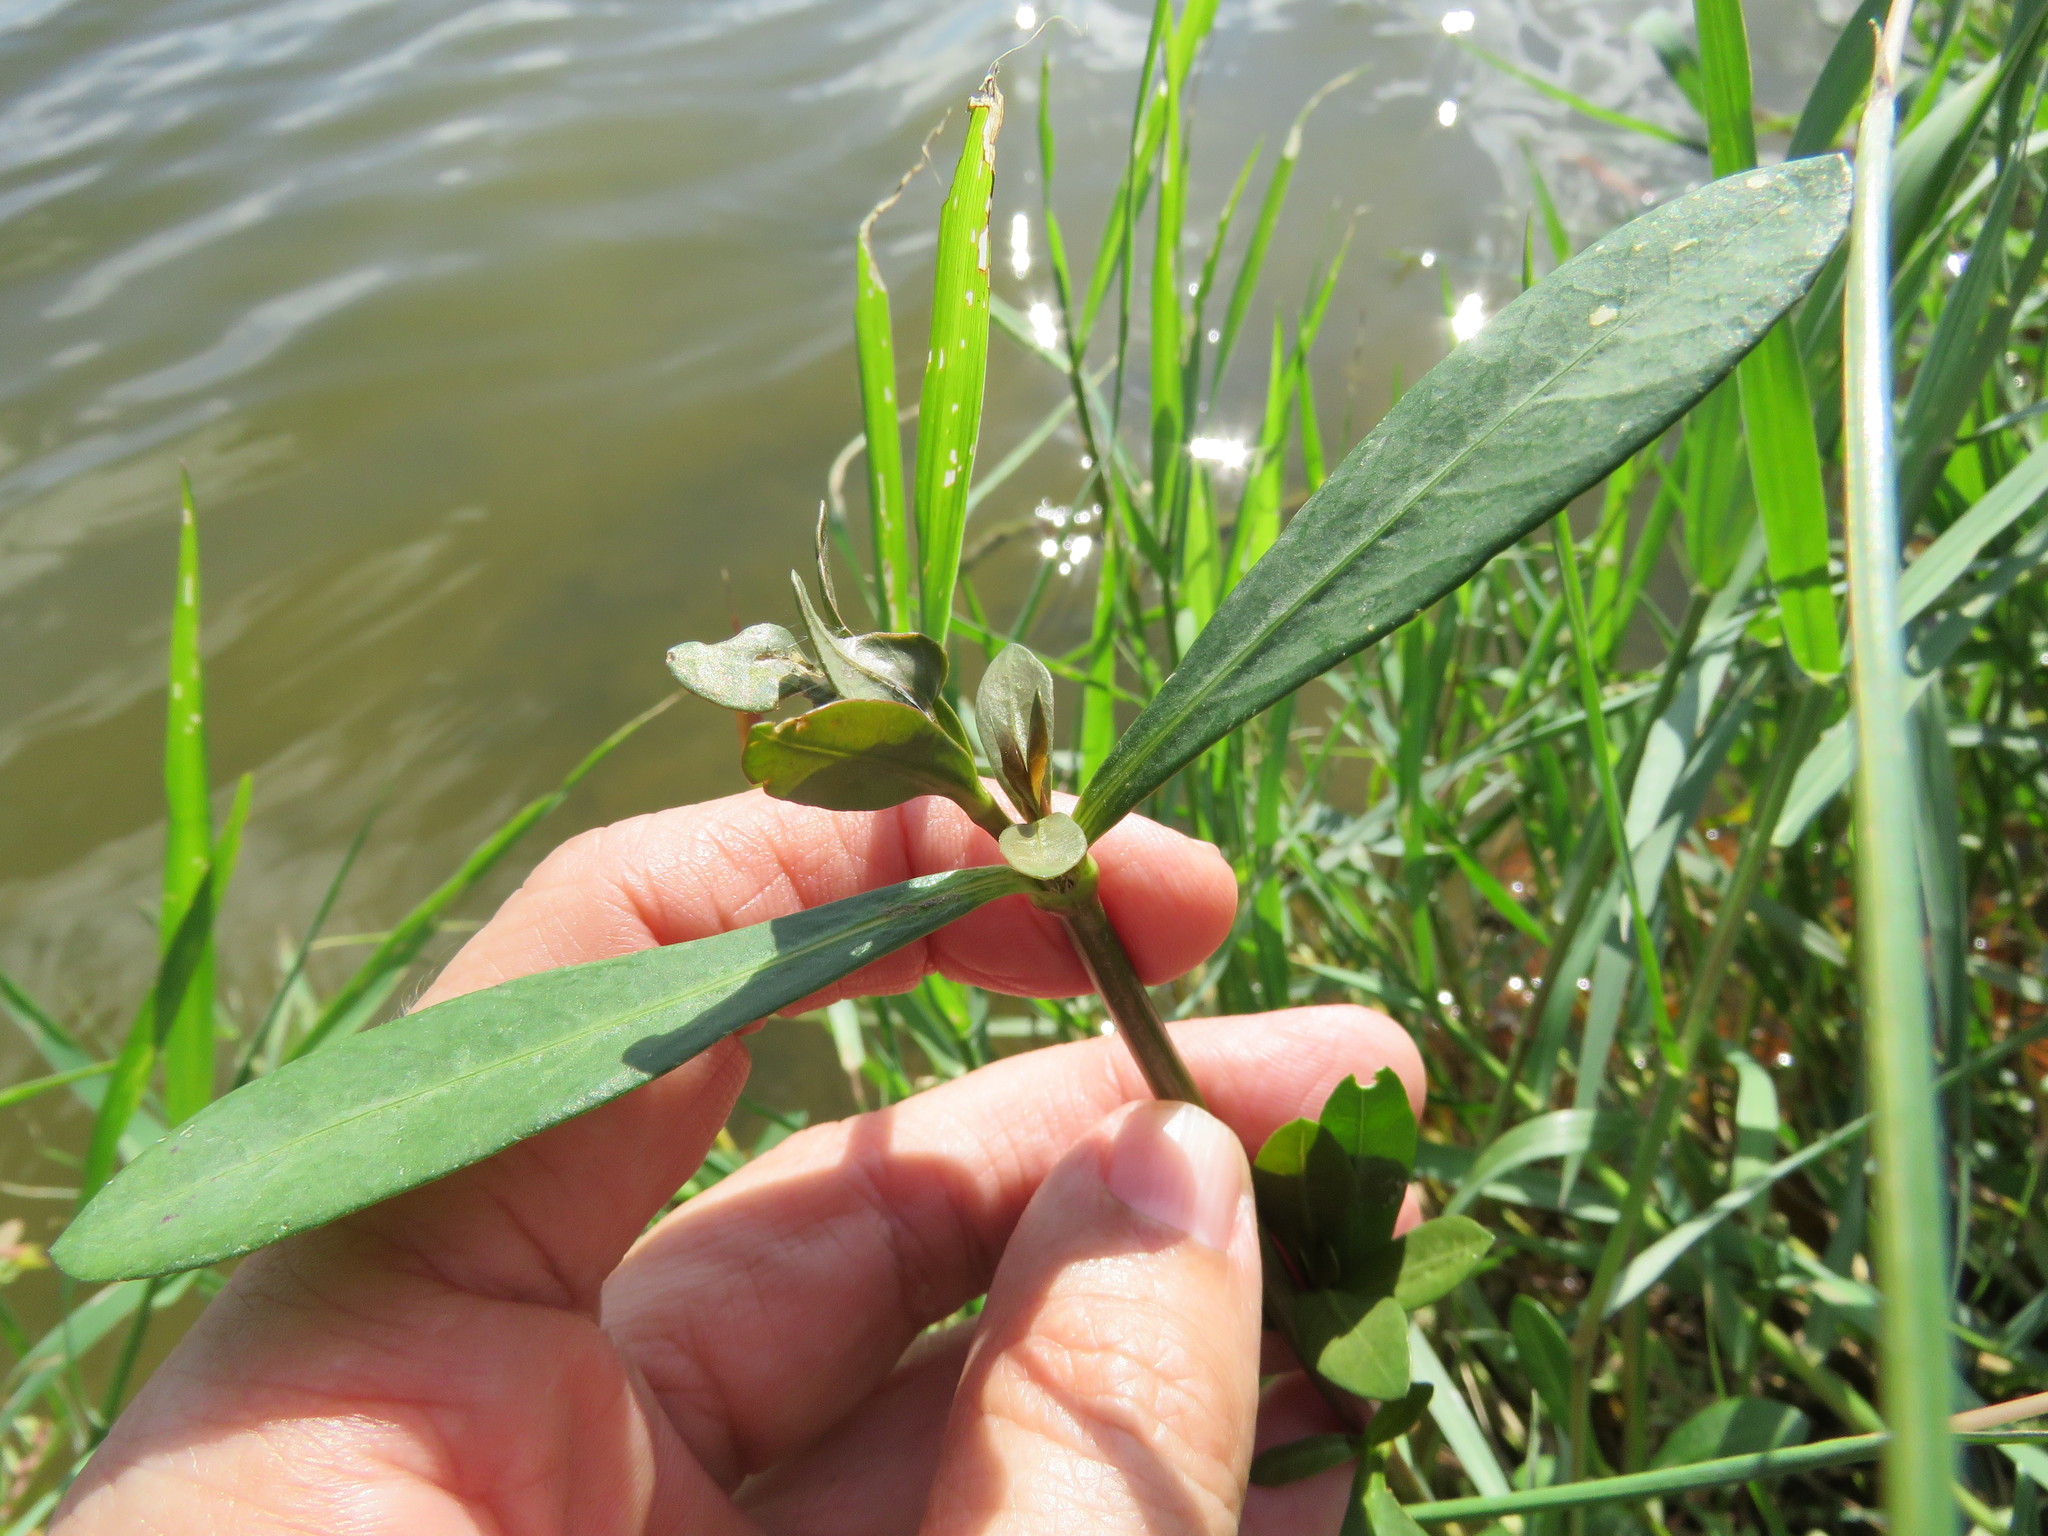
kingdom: Plantae
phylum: Tracheophyta
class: Magnoliopsida
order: Lamiales
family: Acanthaceae
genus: Dianthera
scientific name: Dianthera americana
